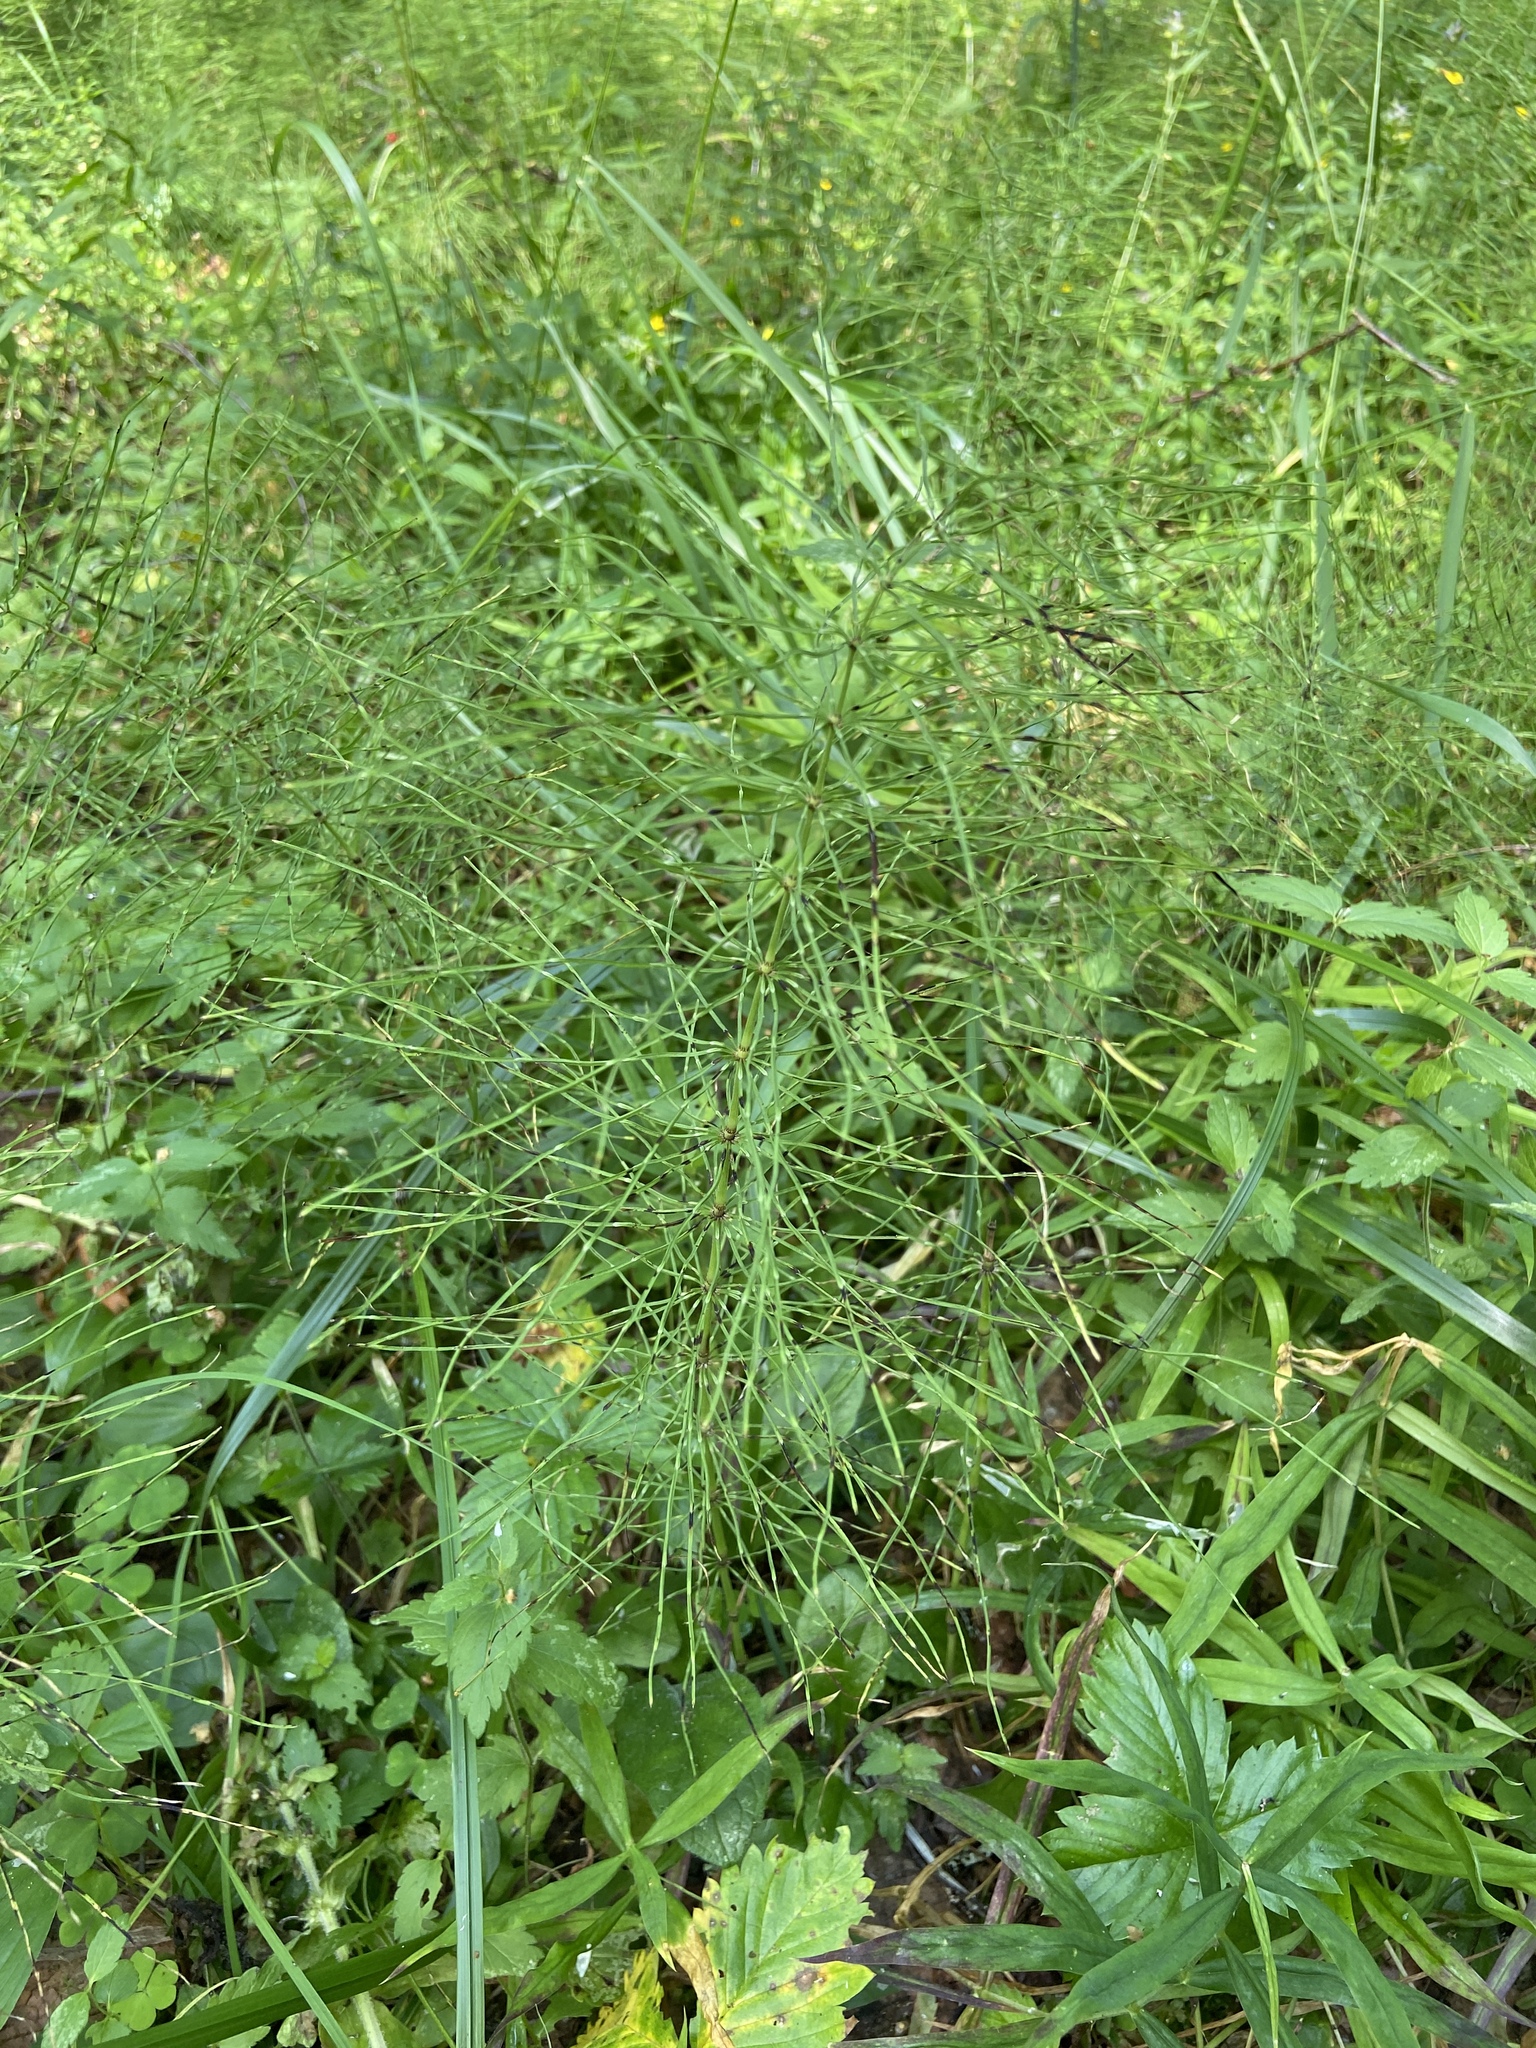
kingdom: Plantae
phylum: Tracheophyta
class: Polypodiopsida
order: Equisetales
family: Equisetaceae
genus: Equisetum
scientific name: Equisetum pratense
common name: Meadow horsetail
